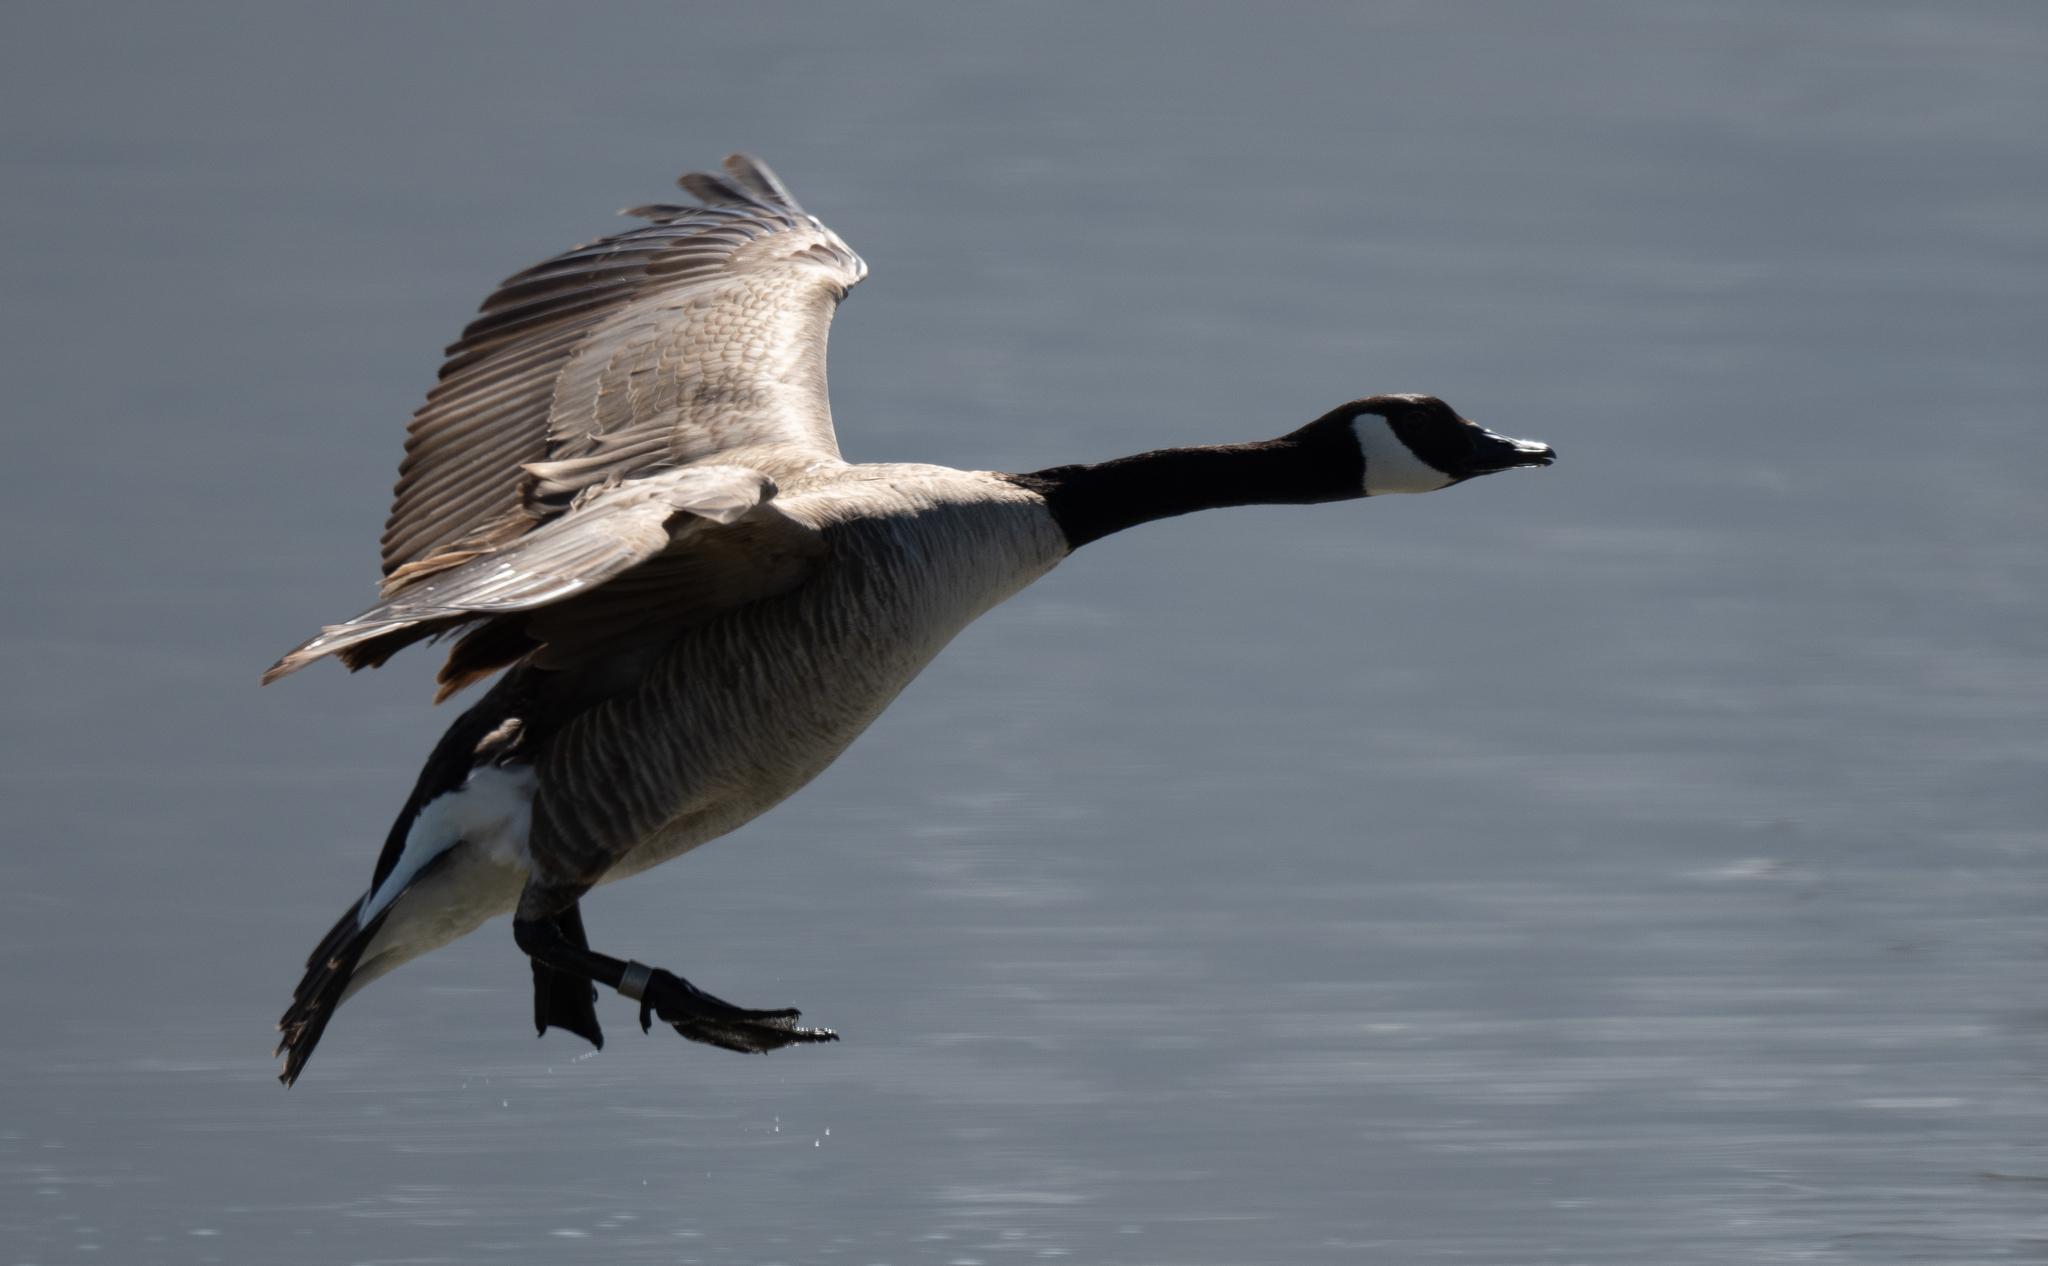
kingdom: Animalia
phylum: Chordata
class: Aves
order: Anseriformes
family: Anatidae
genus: Branta
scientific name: Branta canadensis
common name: Canada goose
